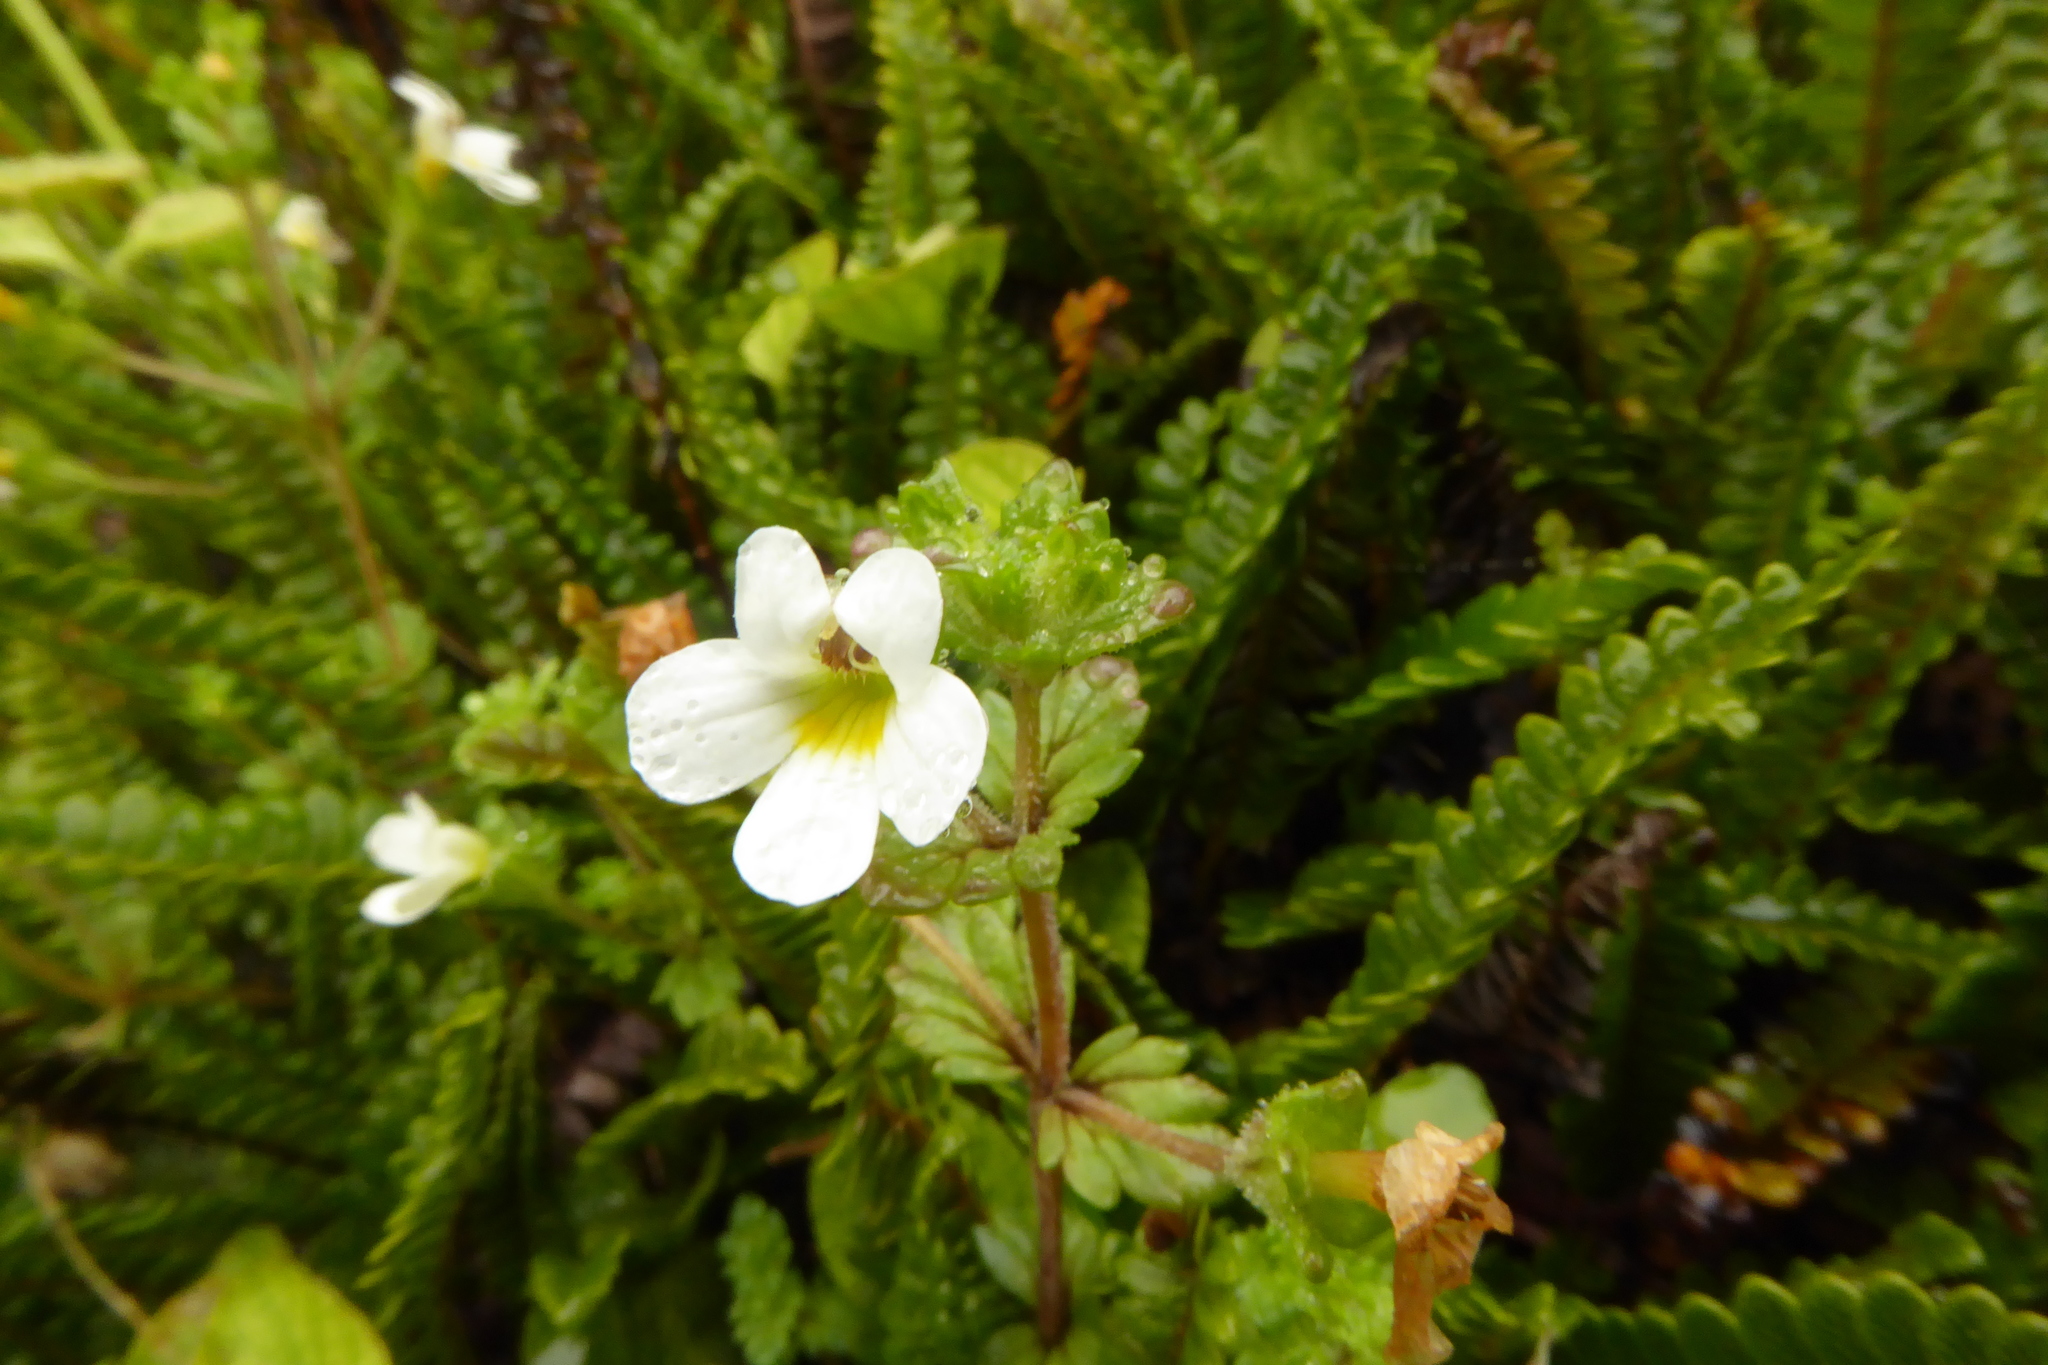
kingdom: Plantae
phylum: Tracheophyta
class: Magnoliopsida
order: Lamiales
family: Orobanchaceae
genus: Euphrasia
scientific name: Euphrasia australis
